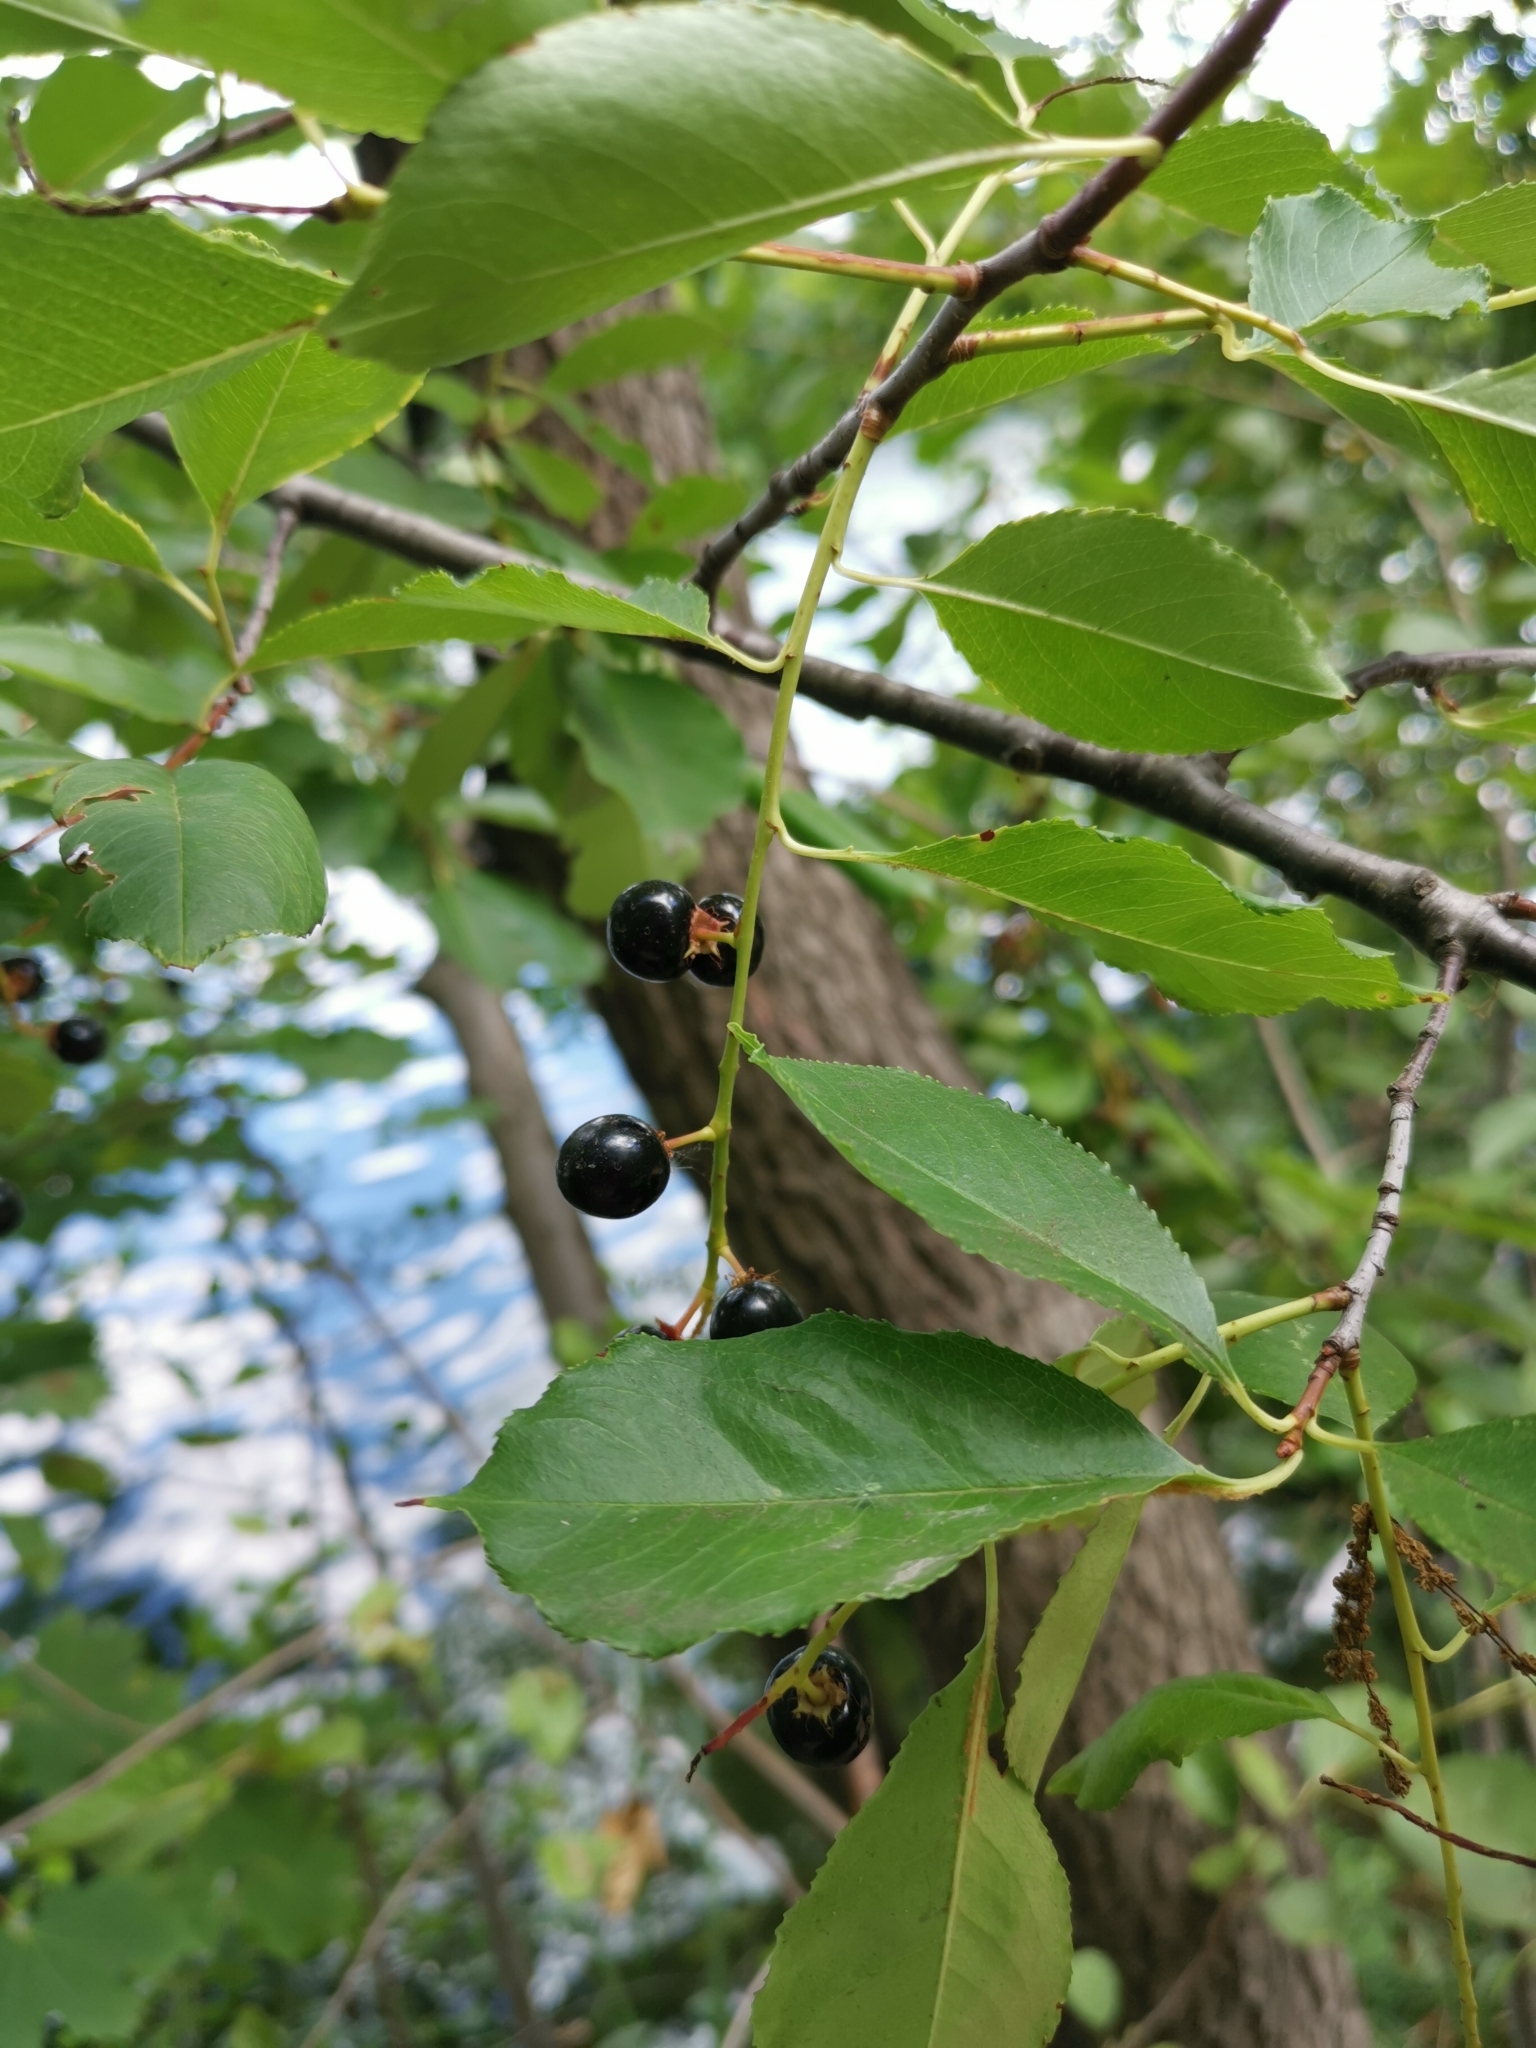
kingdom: Plantae
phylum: Tracheophyta
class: Magnoliopsida
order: Rosales
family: Rosaceae
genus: Prunus
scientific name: Prunus serotina
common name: Black cherry
